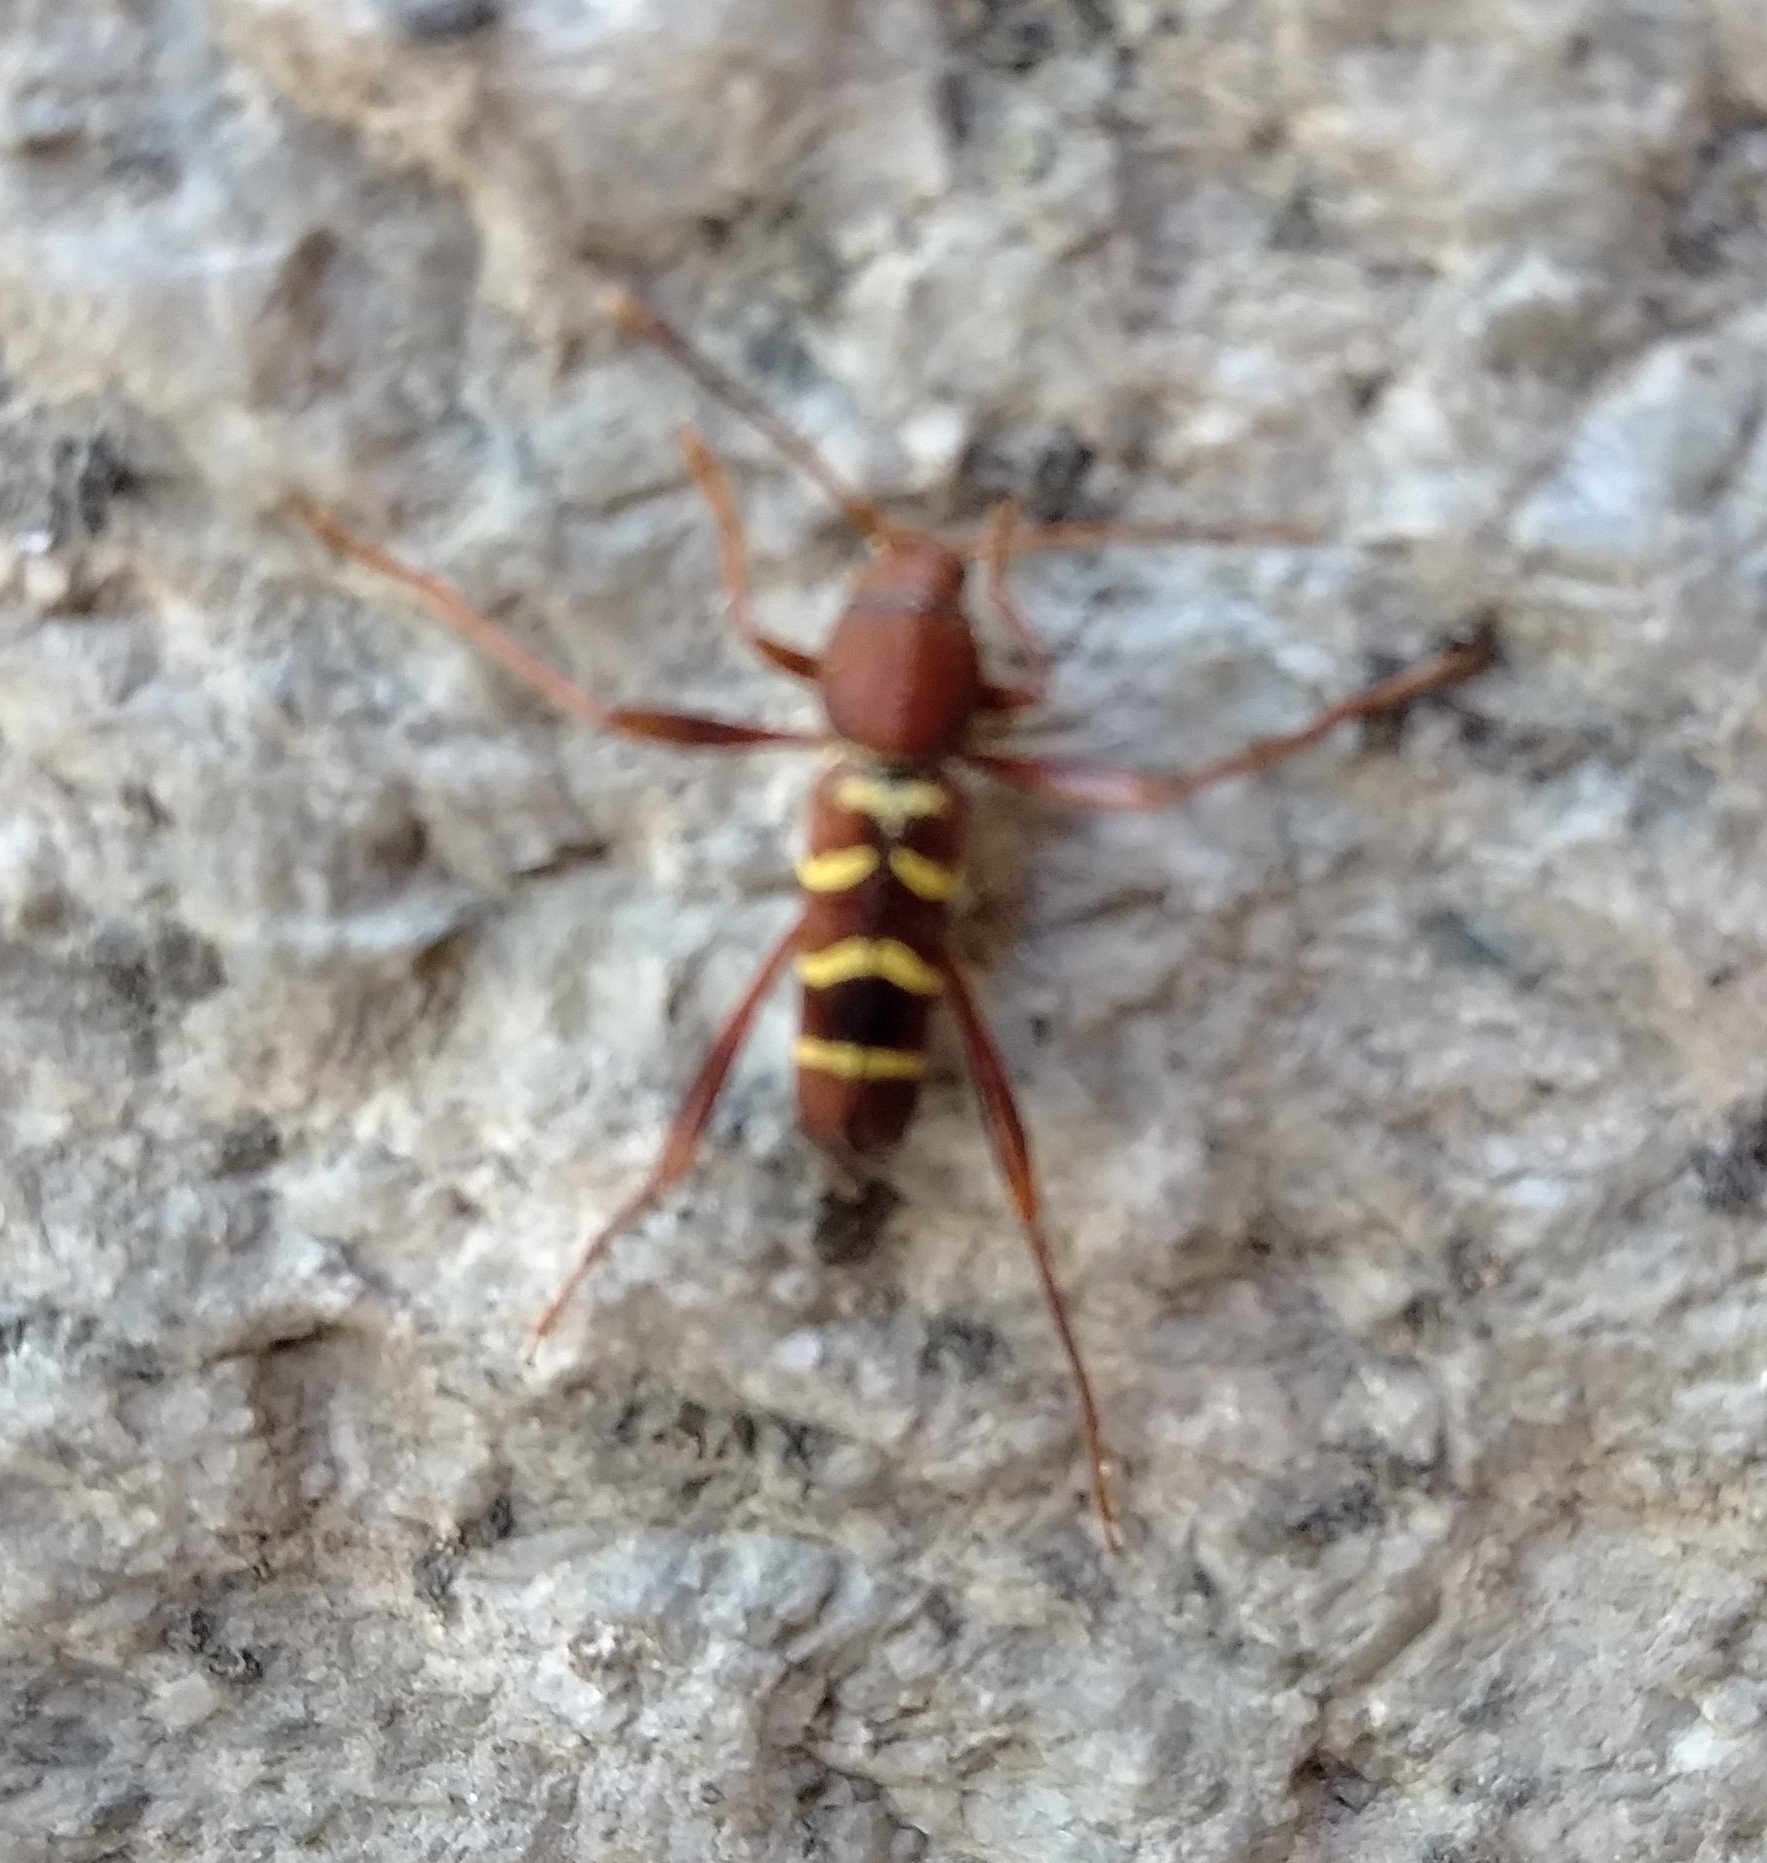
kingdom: Animalia
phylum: Arthropoda
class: Insecta
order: Coleoptera
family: Cerambycidae
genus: Neoclytus
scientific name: Neoclytus acuminatus
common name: Read-headed ash borer
